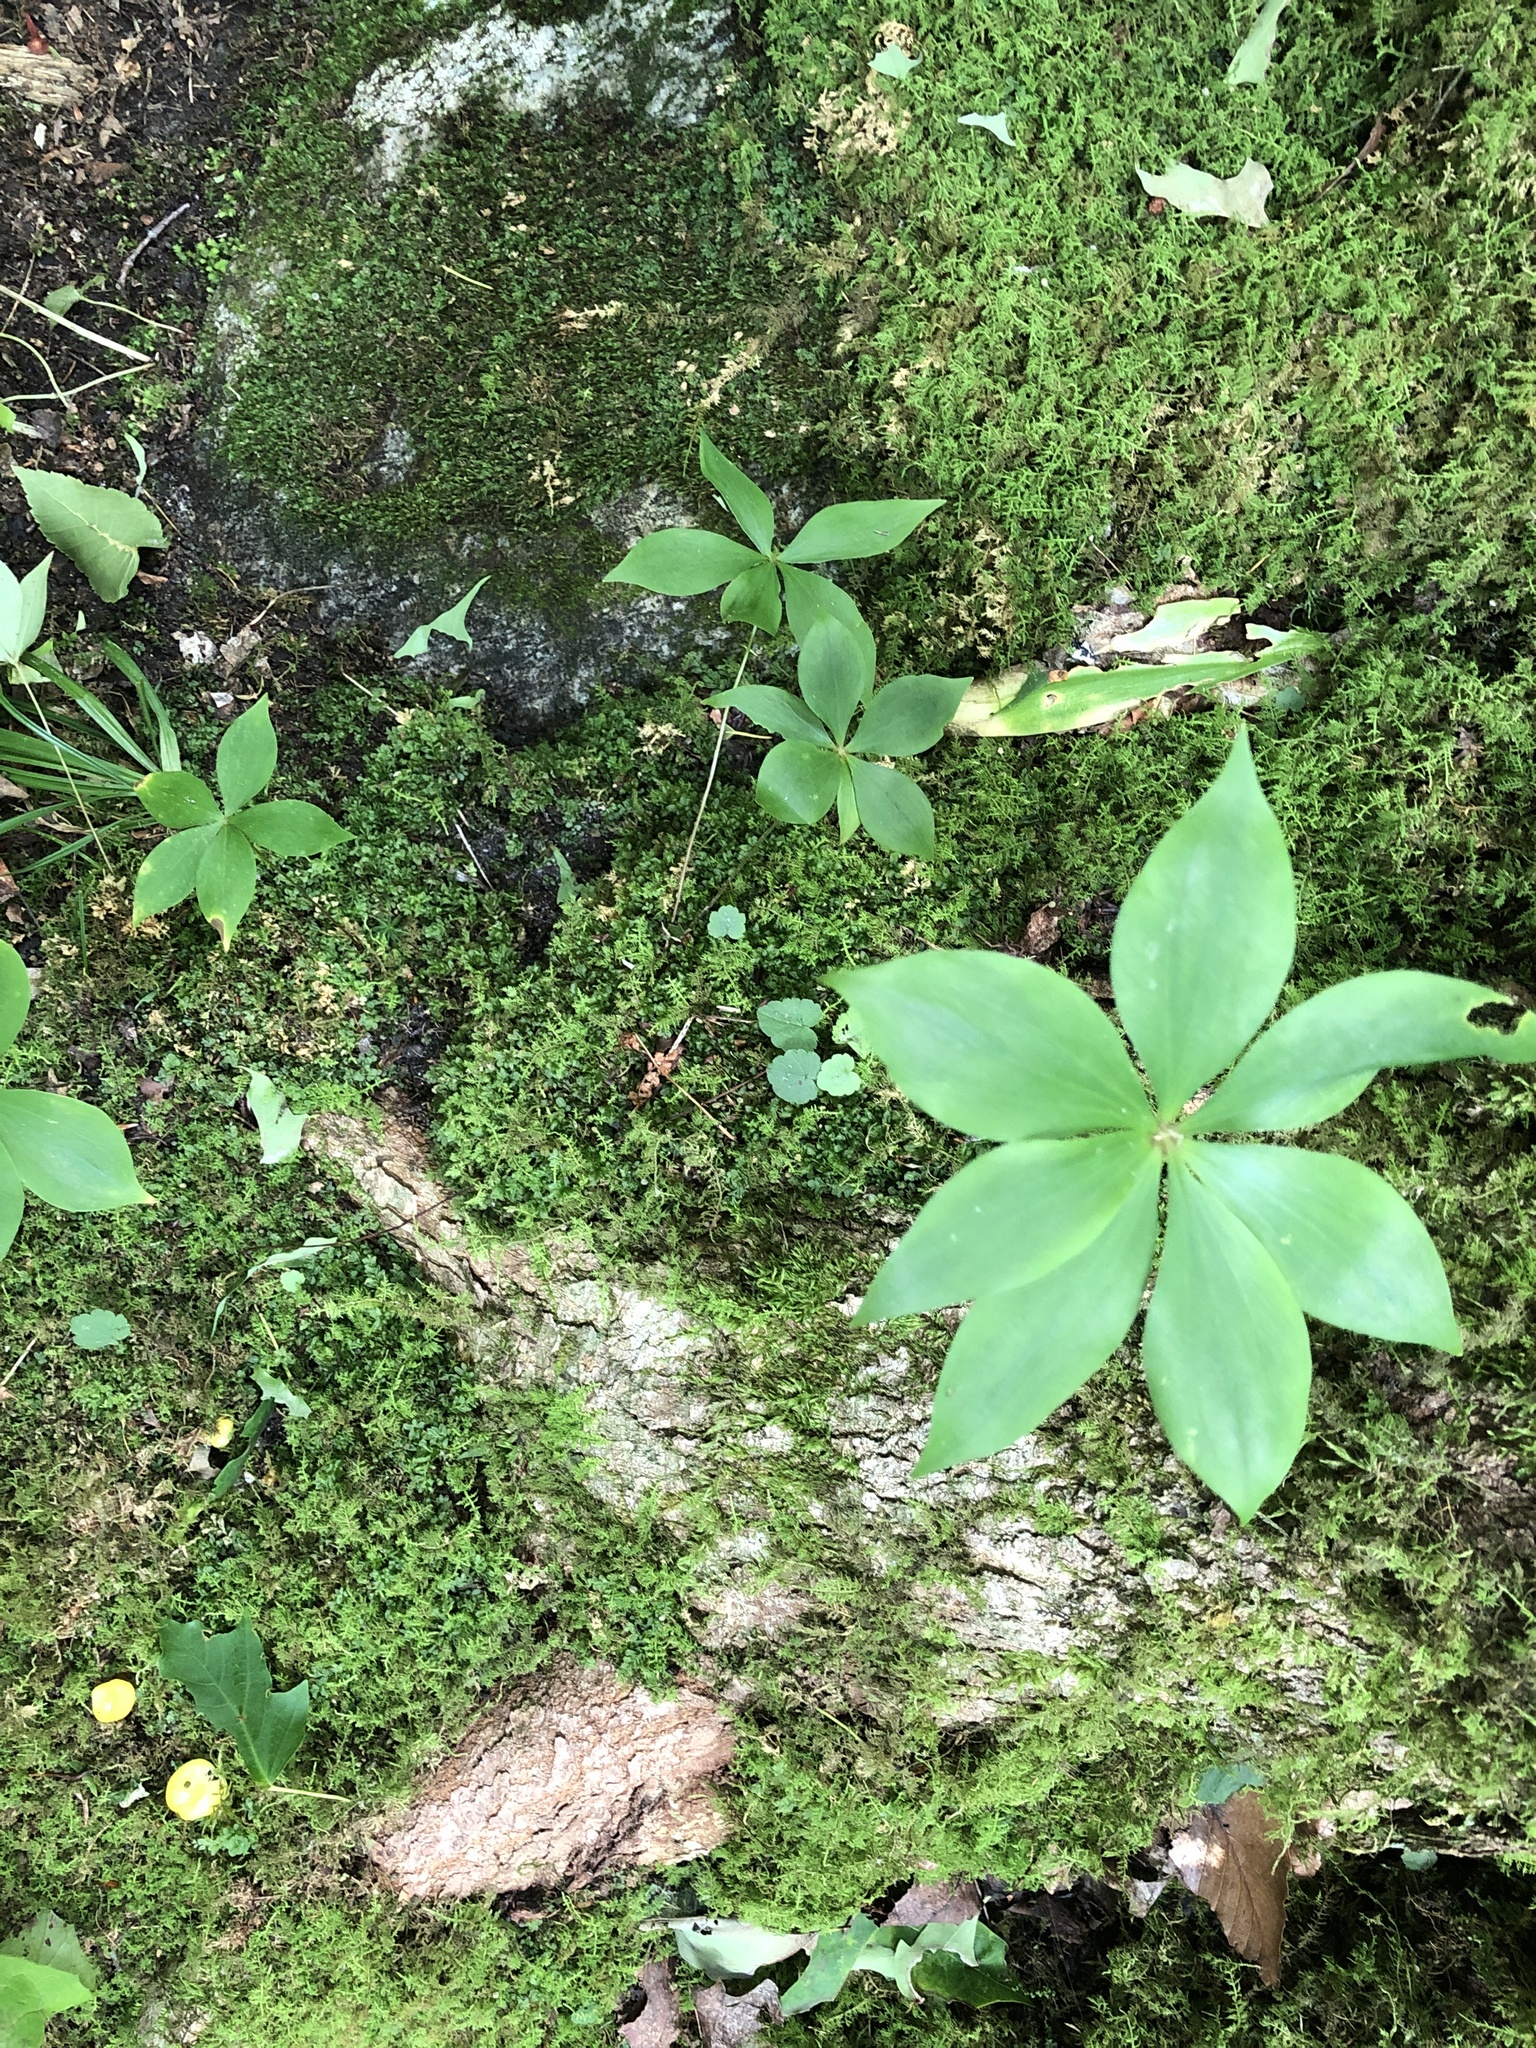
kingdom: Plantae
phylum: Tracheophyta
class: Liliopsida
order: Liliales
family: Liliaceae
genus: Medeola
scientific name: Medeola virginiana
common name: Indian cucumber-root
